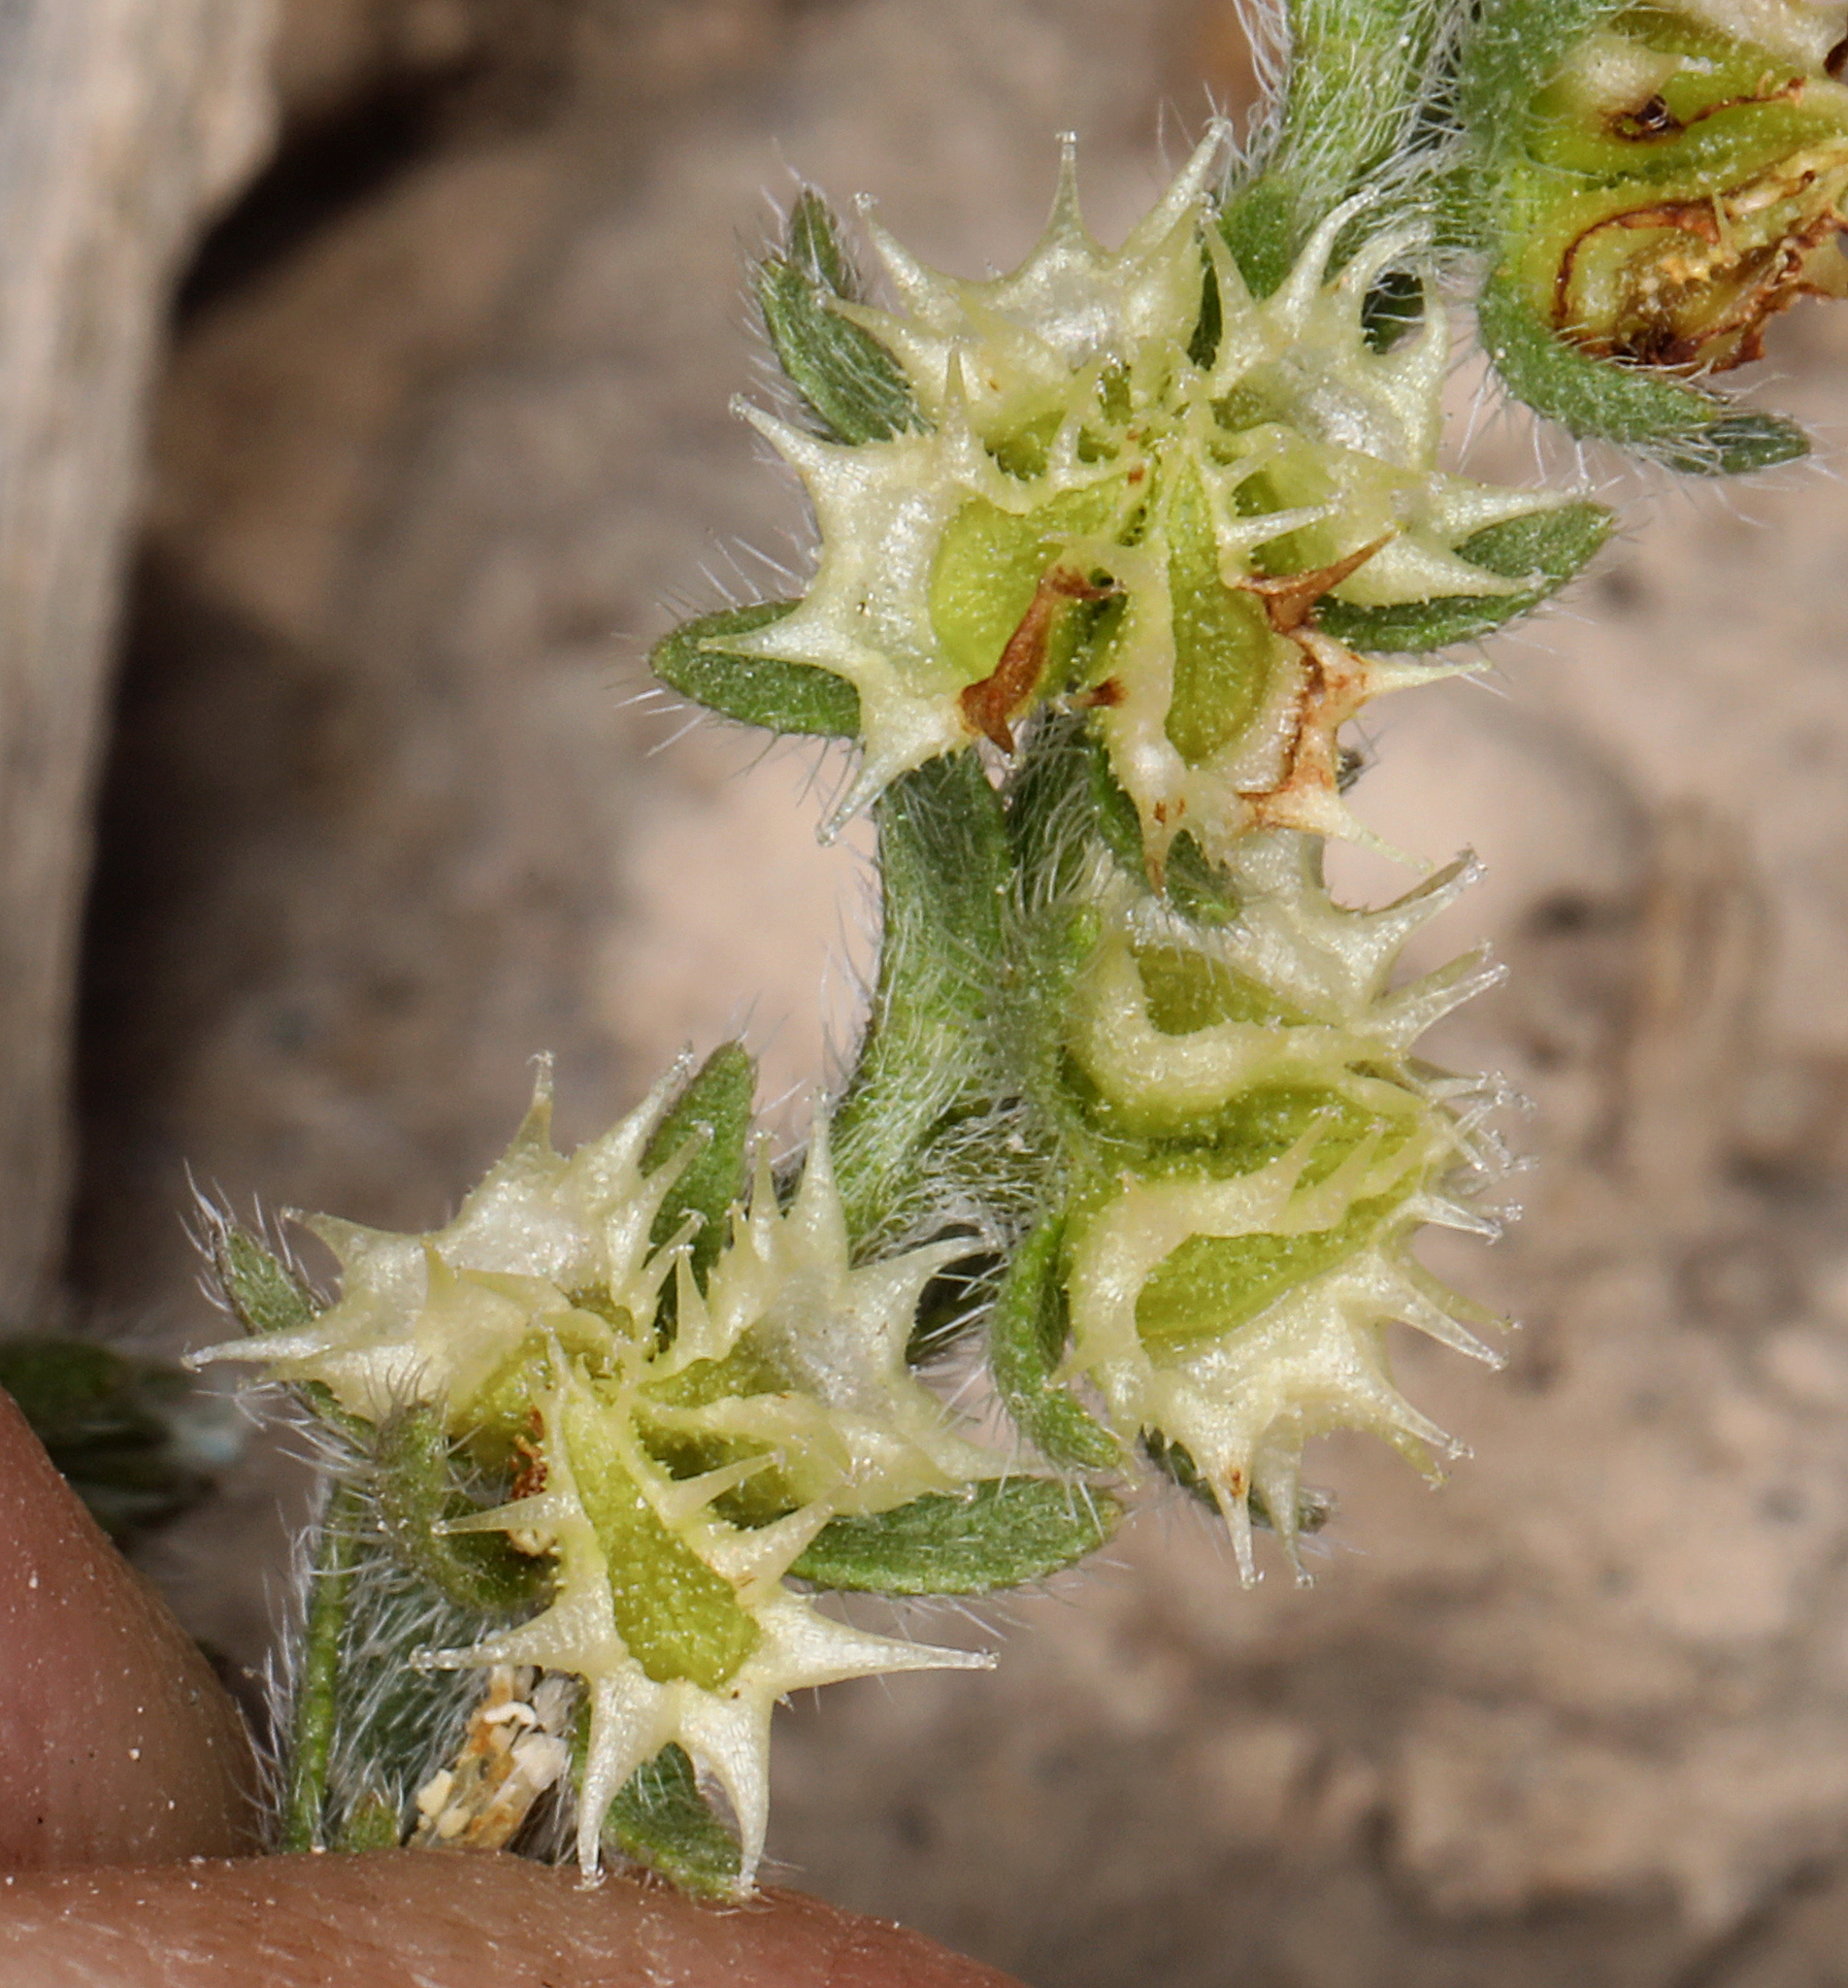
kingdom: Plantae
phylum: Tracheophyta
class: Magnoliopsida
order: Boraginales
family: Boraginaceae
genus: Lappula
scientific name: Lappula occidentalis
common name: Western stickseed
